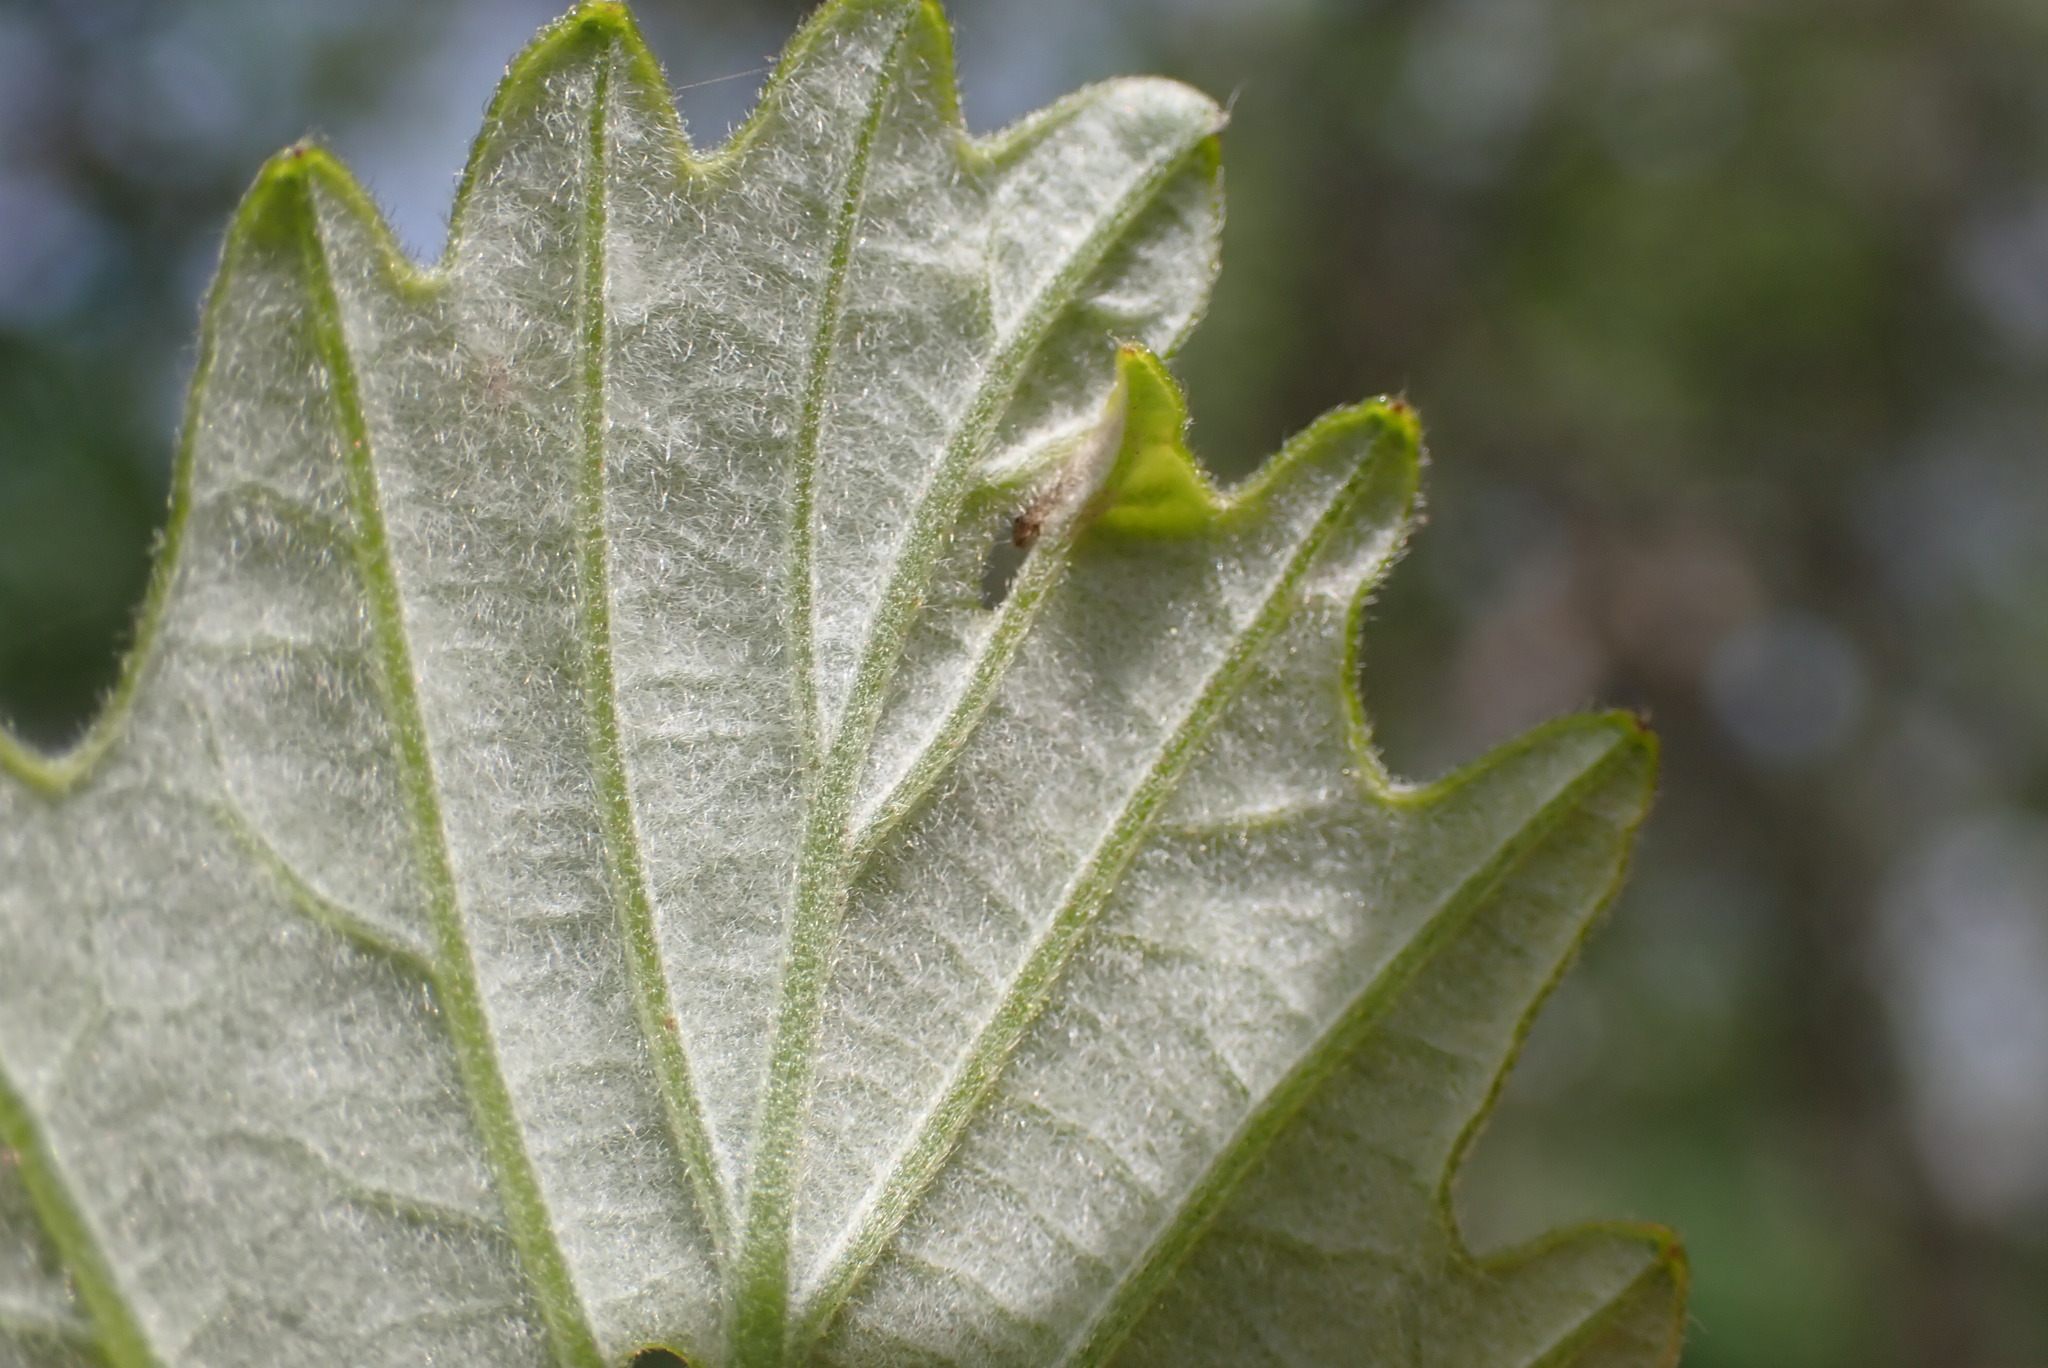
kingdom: Animalia
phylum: Arthropoda
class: Insecta
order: Diptera
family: Agromyzidae
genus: Japanagromyza
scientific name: Japanagromyza viridula
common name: Oak shothole leafminer
